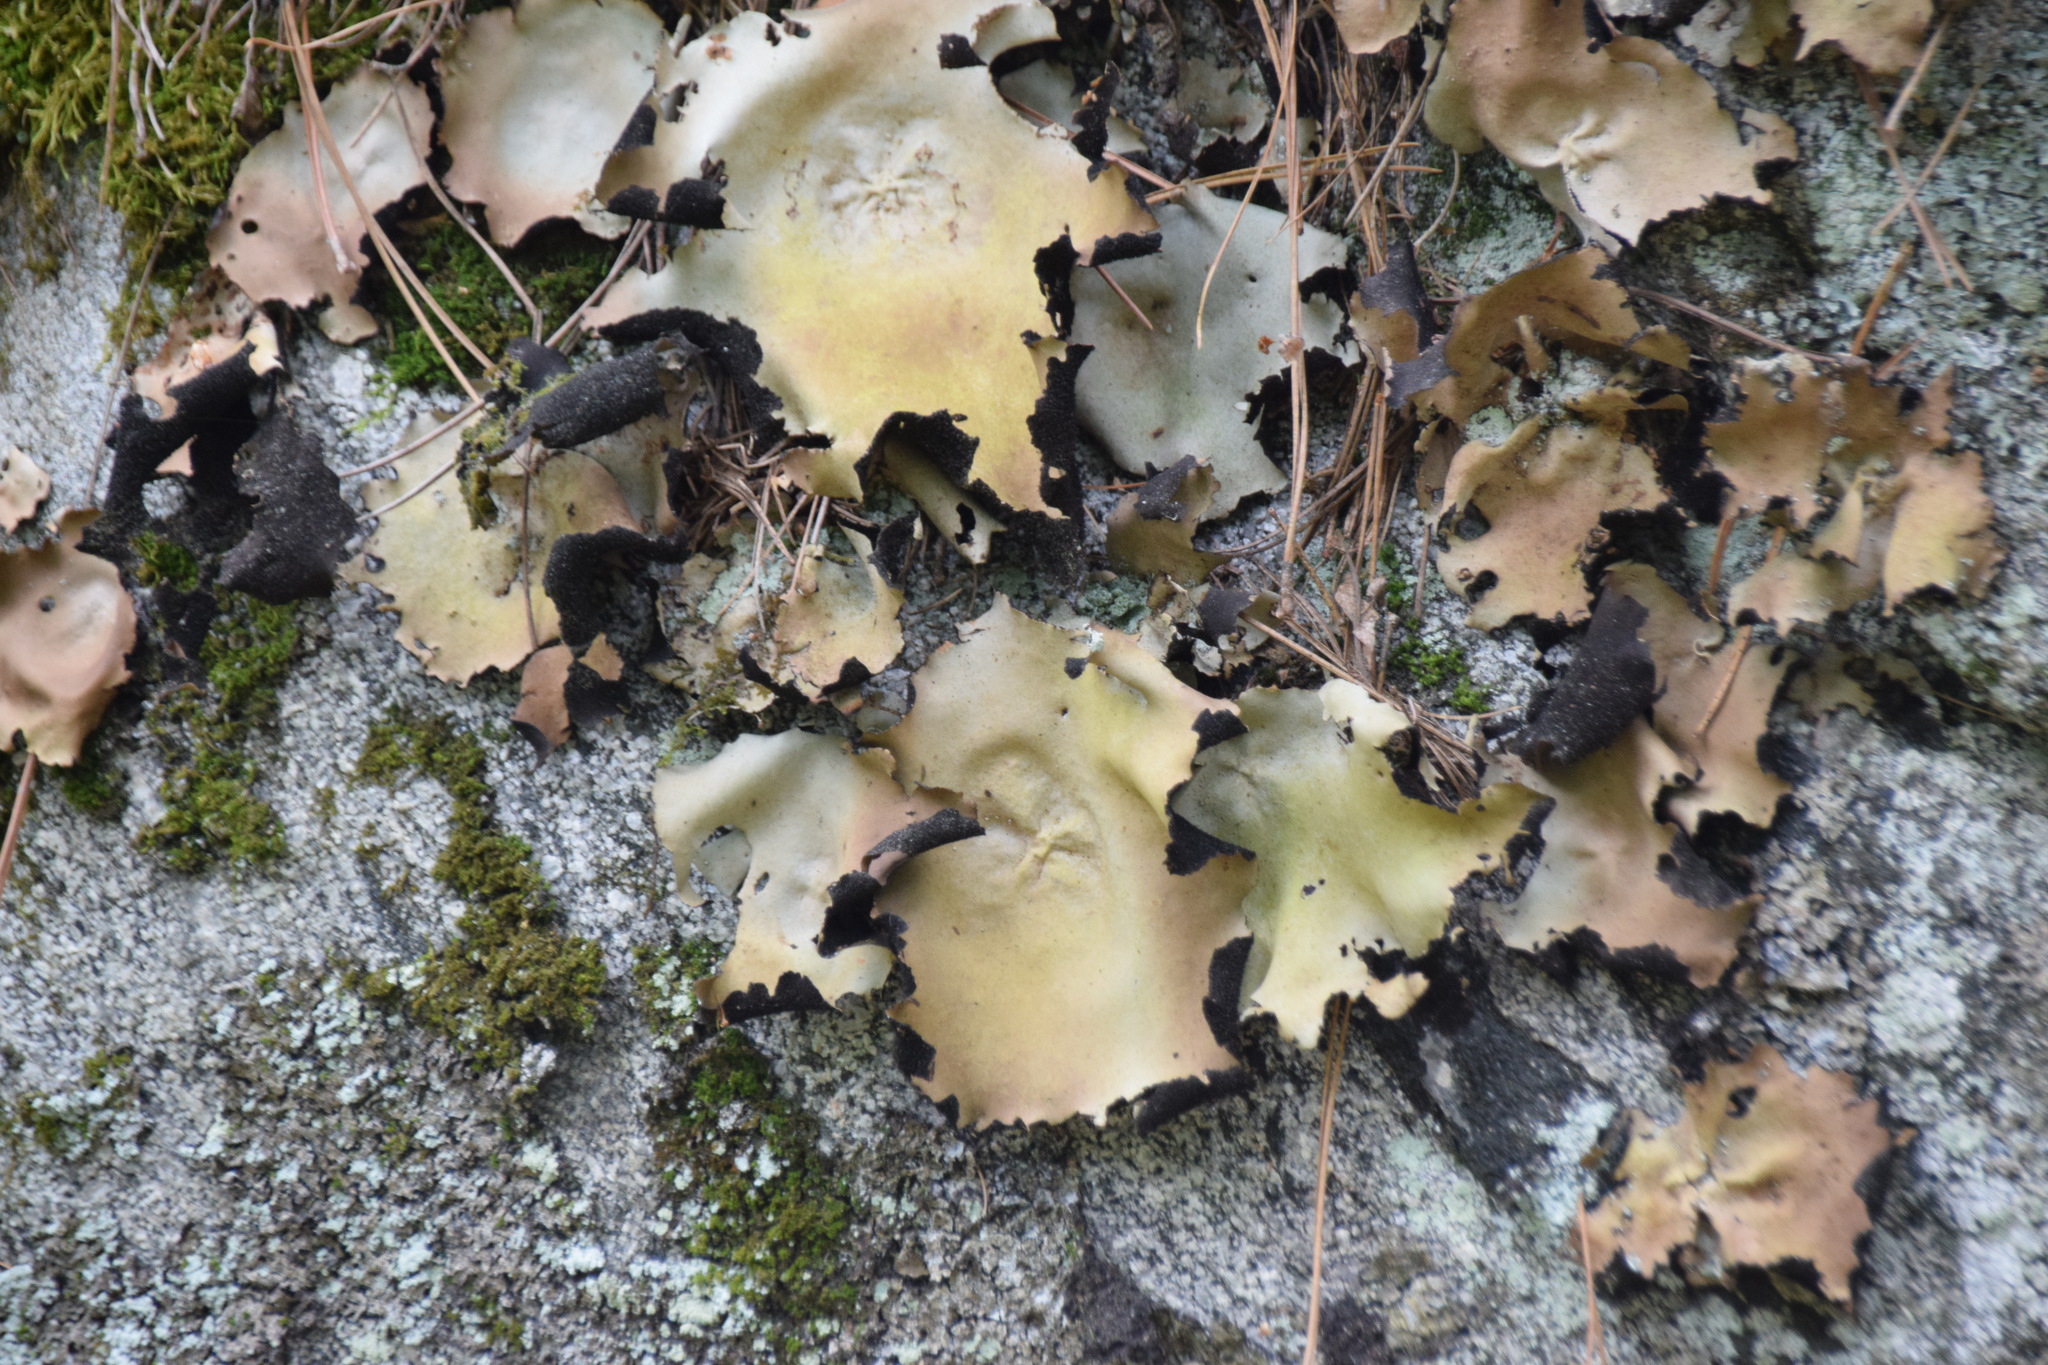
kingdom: Fungi
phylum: Ascomycota
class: Lecanoromycetes
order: Umbilicariales
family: Umbilicariaceae
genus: Umbilicaria
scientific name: Umbilicaria mammulata
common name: Smooth rock tripe
